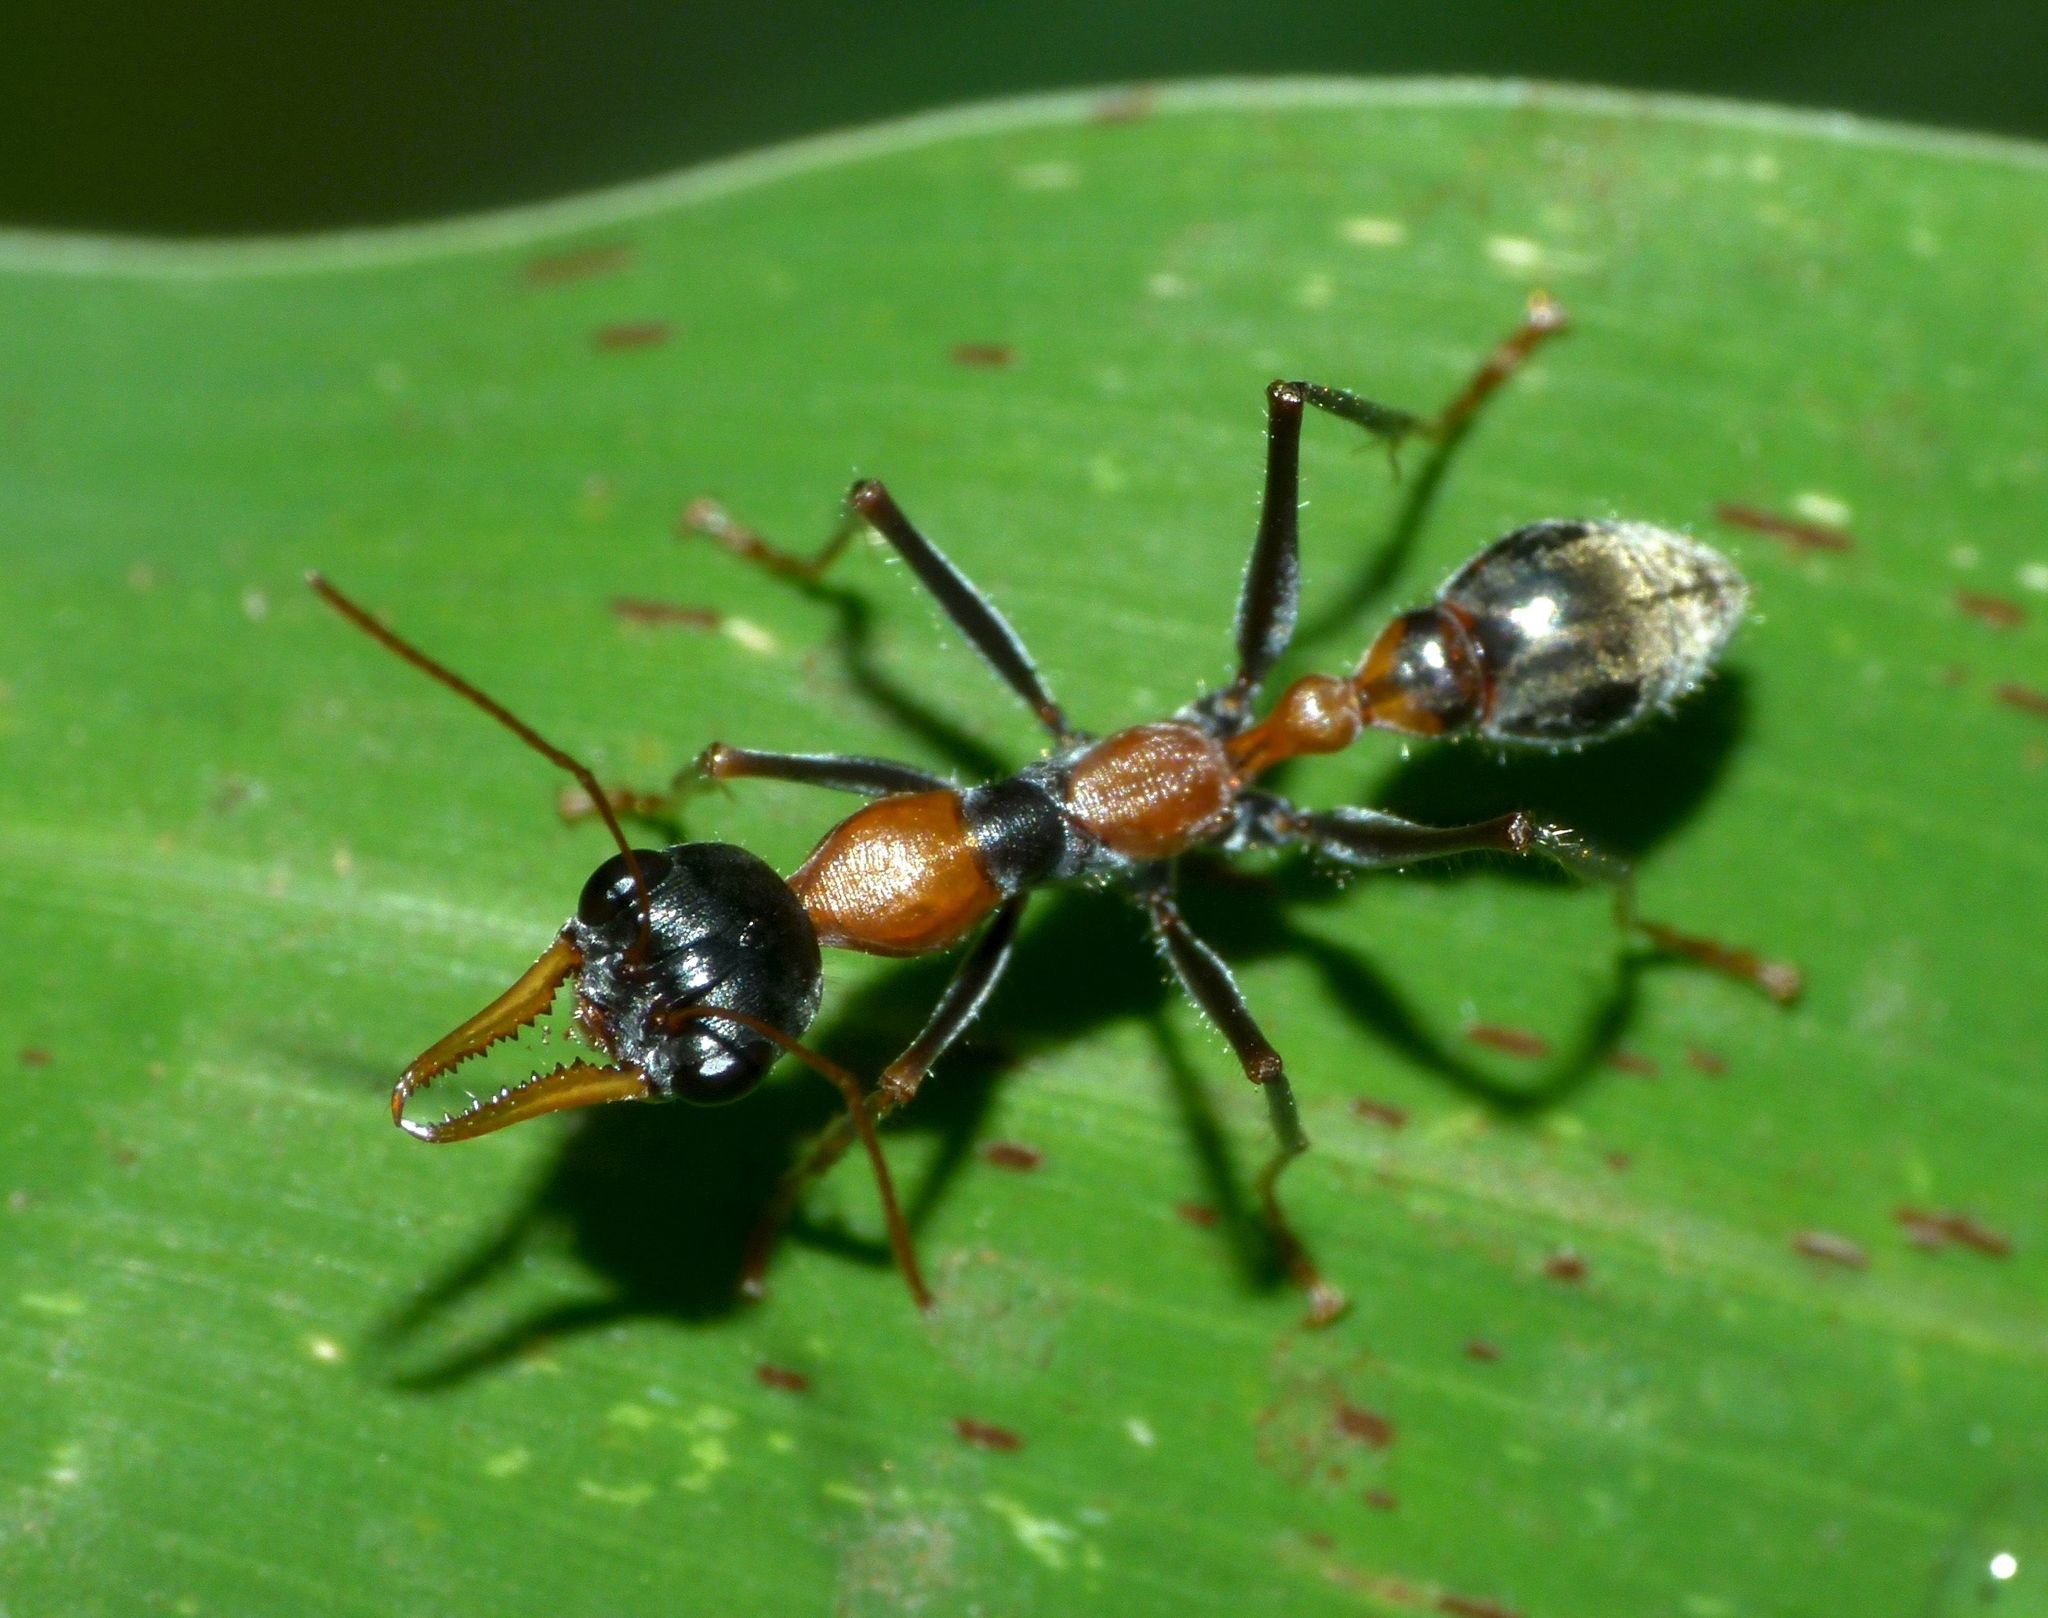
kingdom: Animalia
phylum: Arthropoda
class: Insecta
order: Hymenoptera
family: Formicidae
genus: Myrmecia
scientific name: Myrmecia nigrocincta
